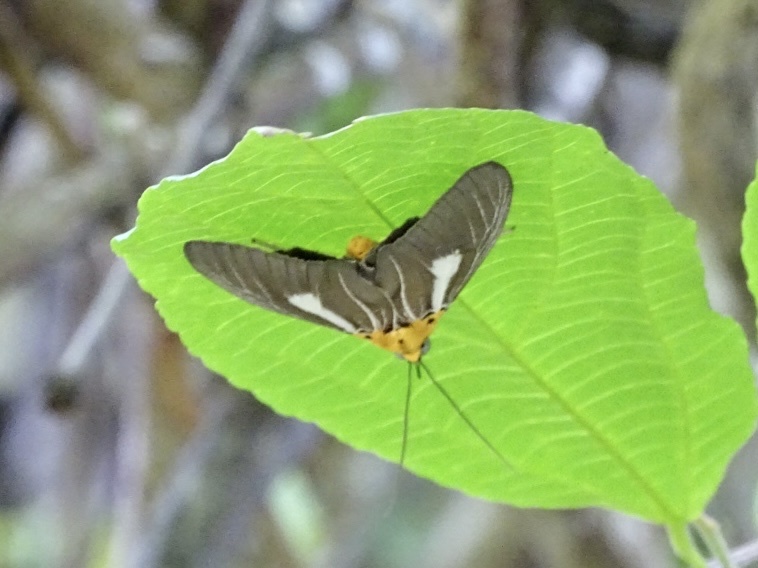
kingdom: Animalia
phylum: Arthropoda
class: Insecta
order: Lepidoptera
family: Erebidae
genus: Asota
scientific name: Asota heliconia
